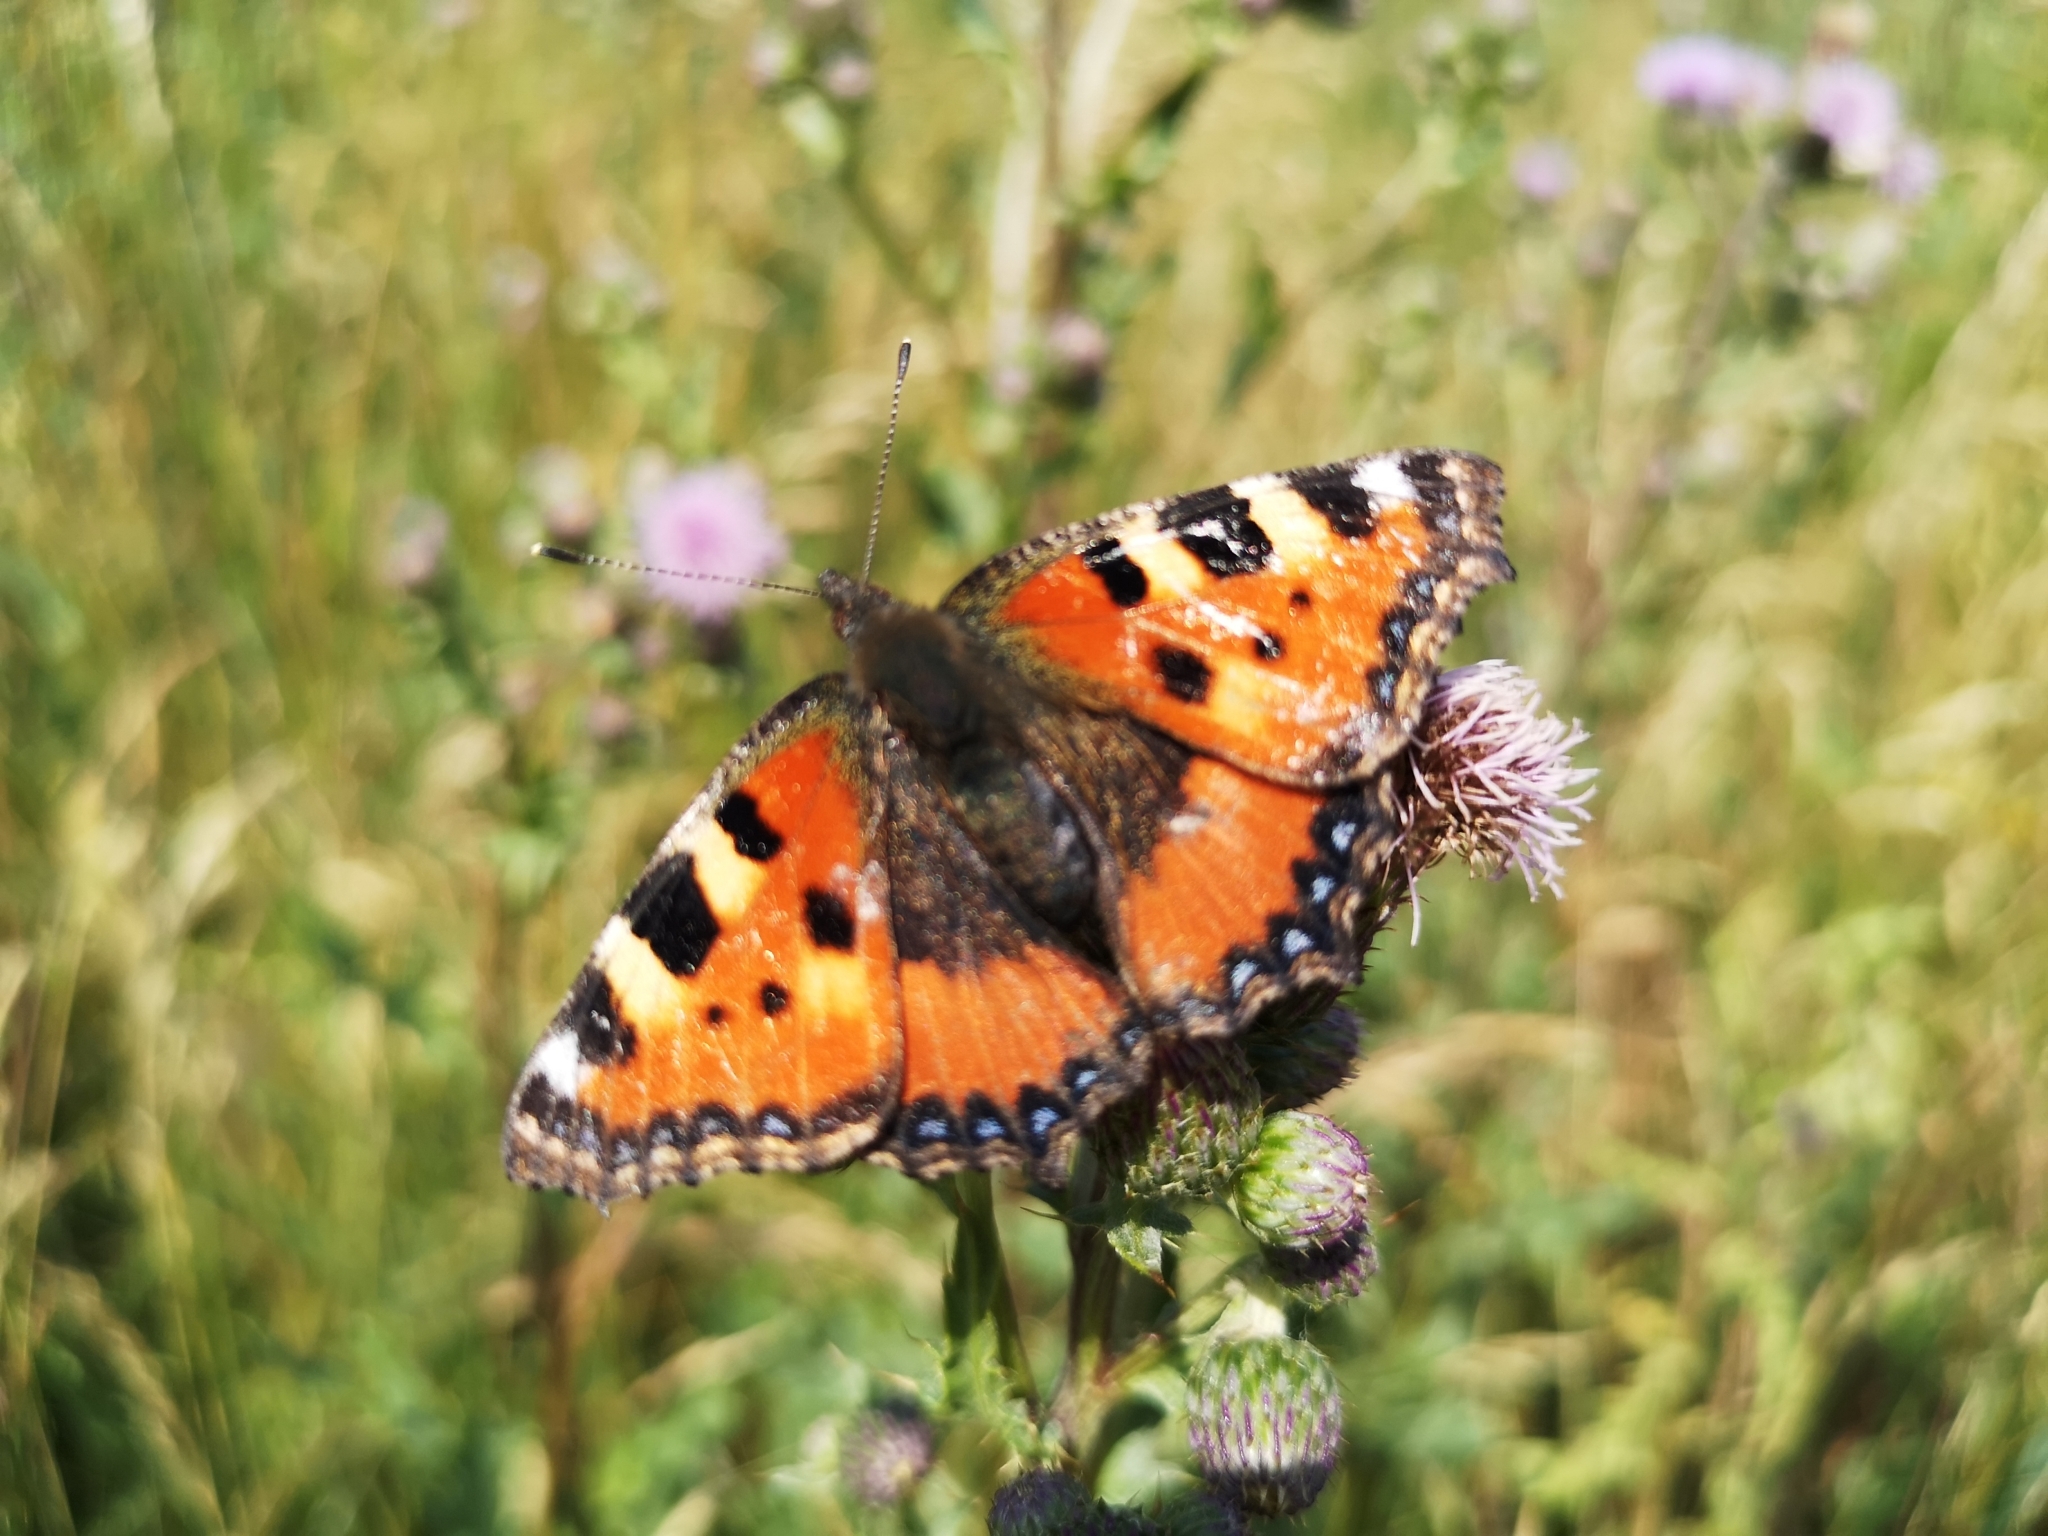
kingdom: Animalia
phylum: Arthropoda
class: Insecta
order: Lepidoptera
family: Nymphalidae
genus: Aglais
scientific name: Aglais urticae
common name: Small tortoiseshell
